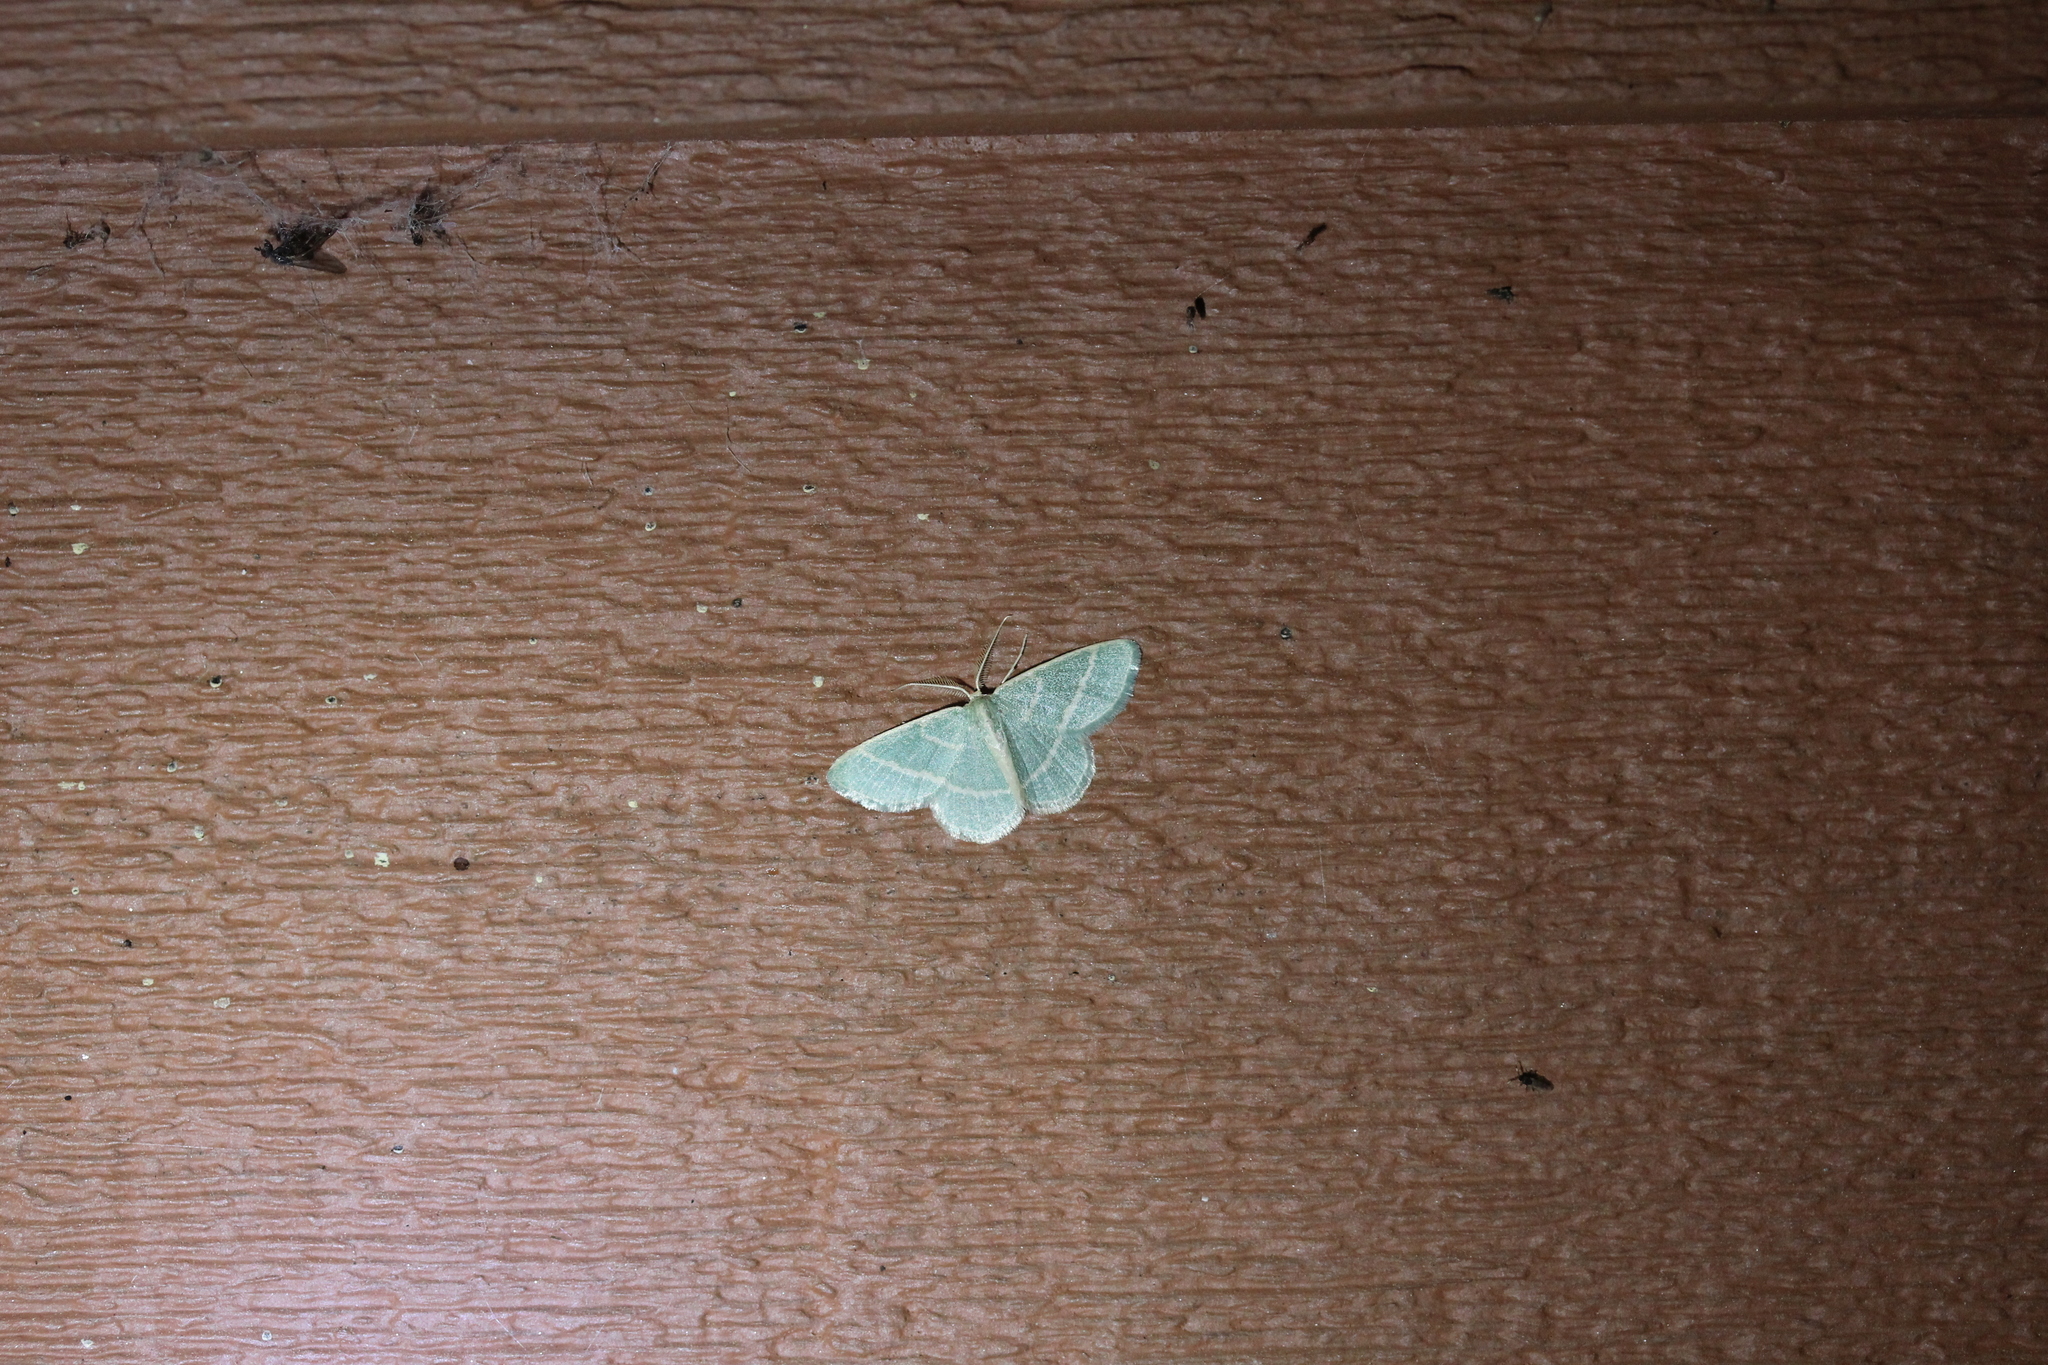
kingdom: Animalia
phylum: Arthropoda
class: Insecta
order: Lepidoptera
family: Geometridae
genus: Chlorochlamys
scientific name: Chlorochlamys chloroleucaria
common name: Blackberry looper
